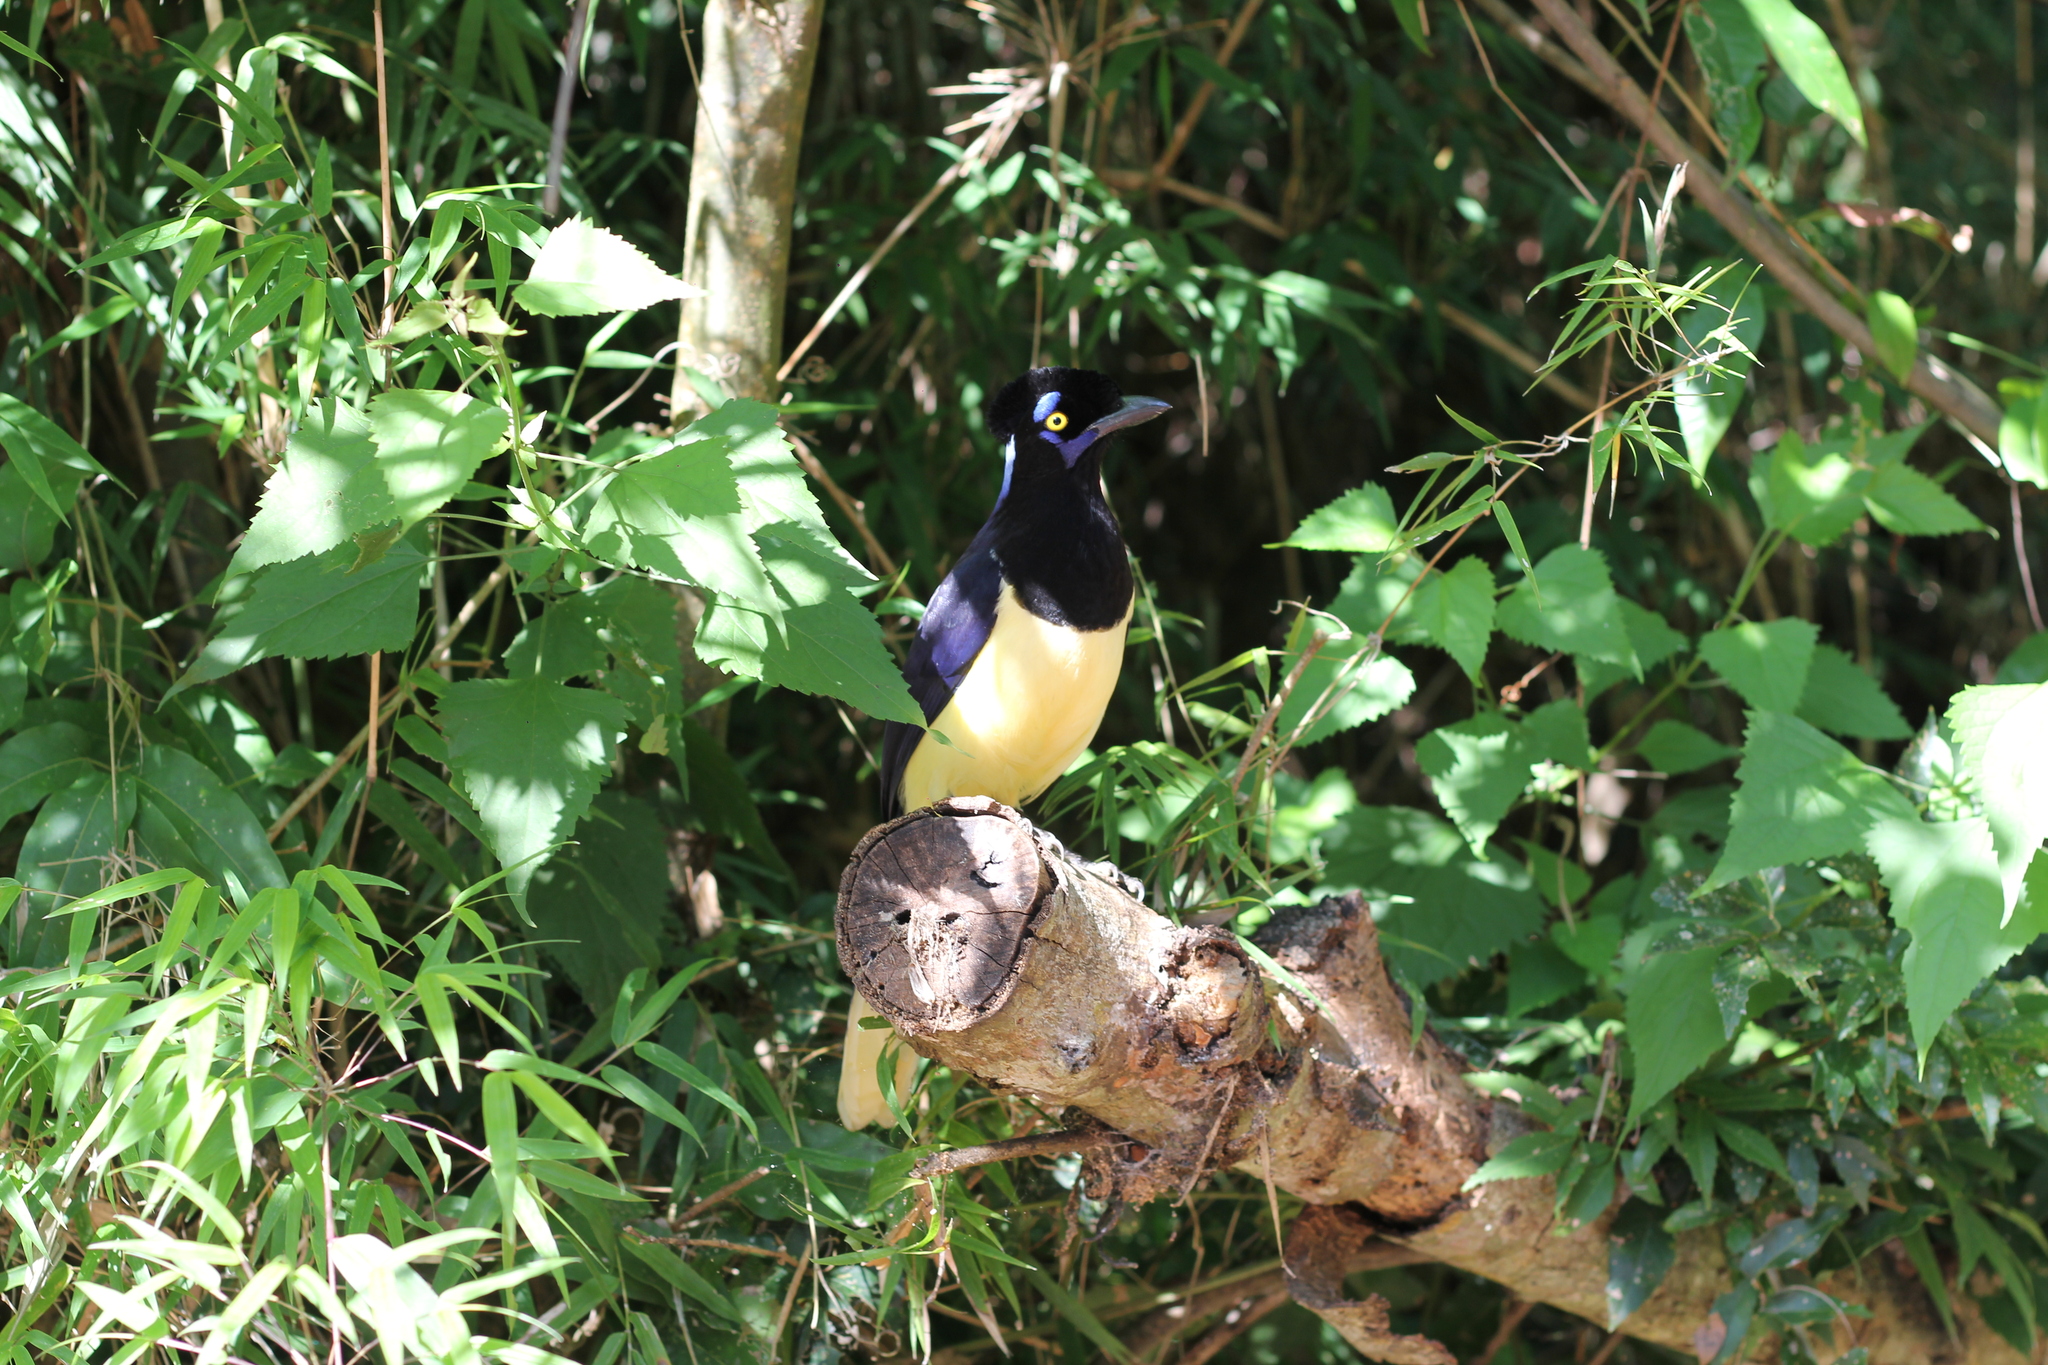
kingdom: Animalia
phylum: Chordata
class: Aves
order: Passeriformes
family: Corvidae
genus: Cyanocorax
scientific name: Cyanocorax chrysops
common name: Plush-crested jay
